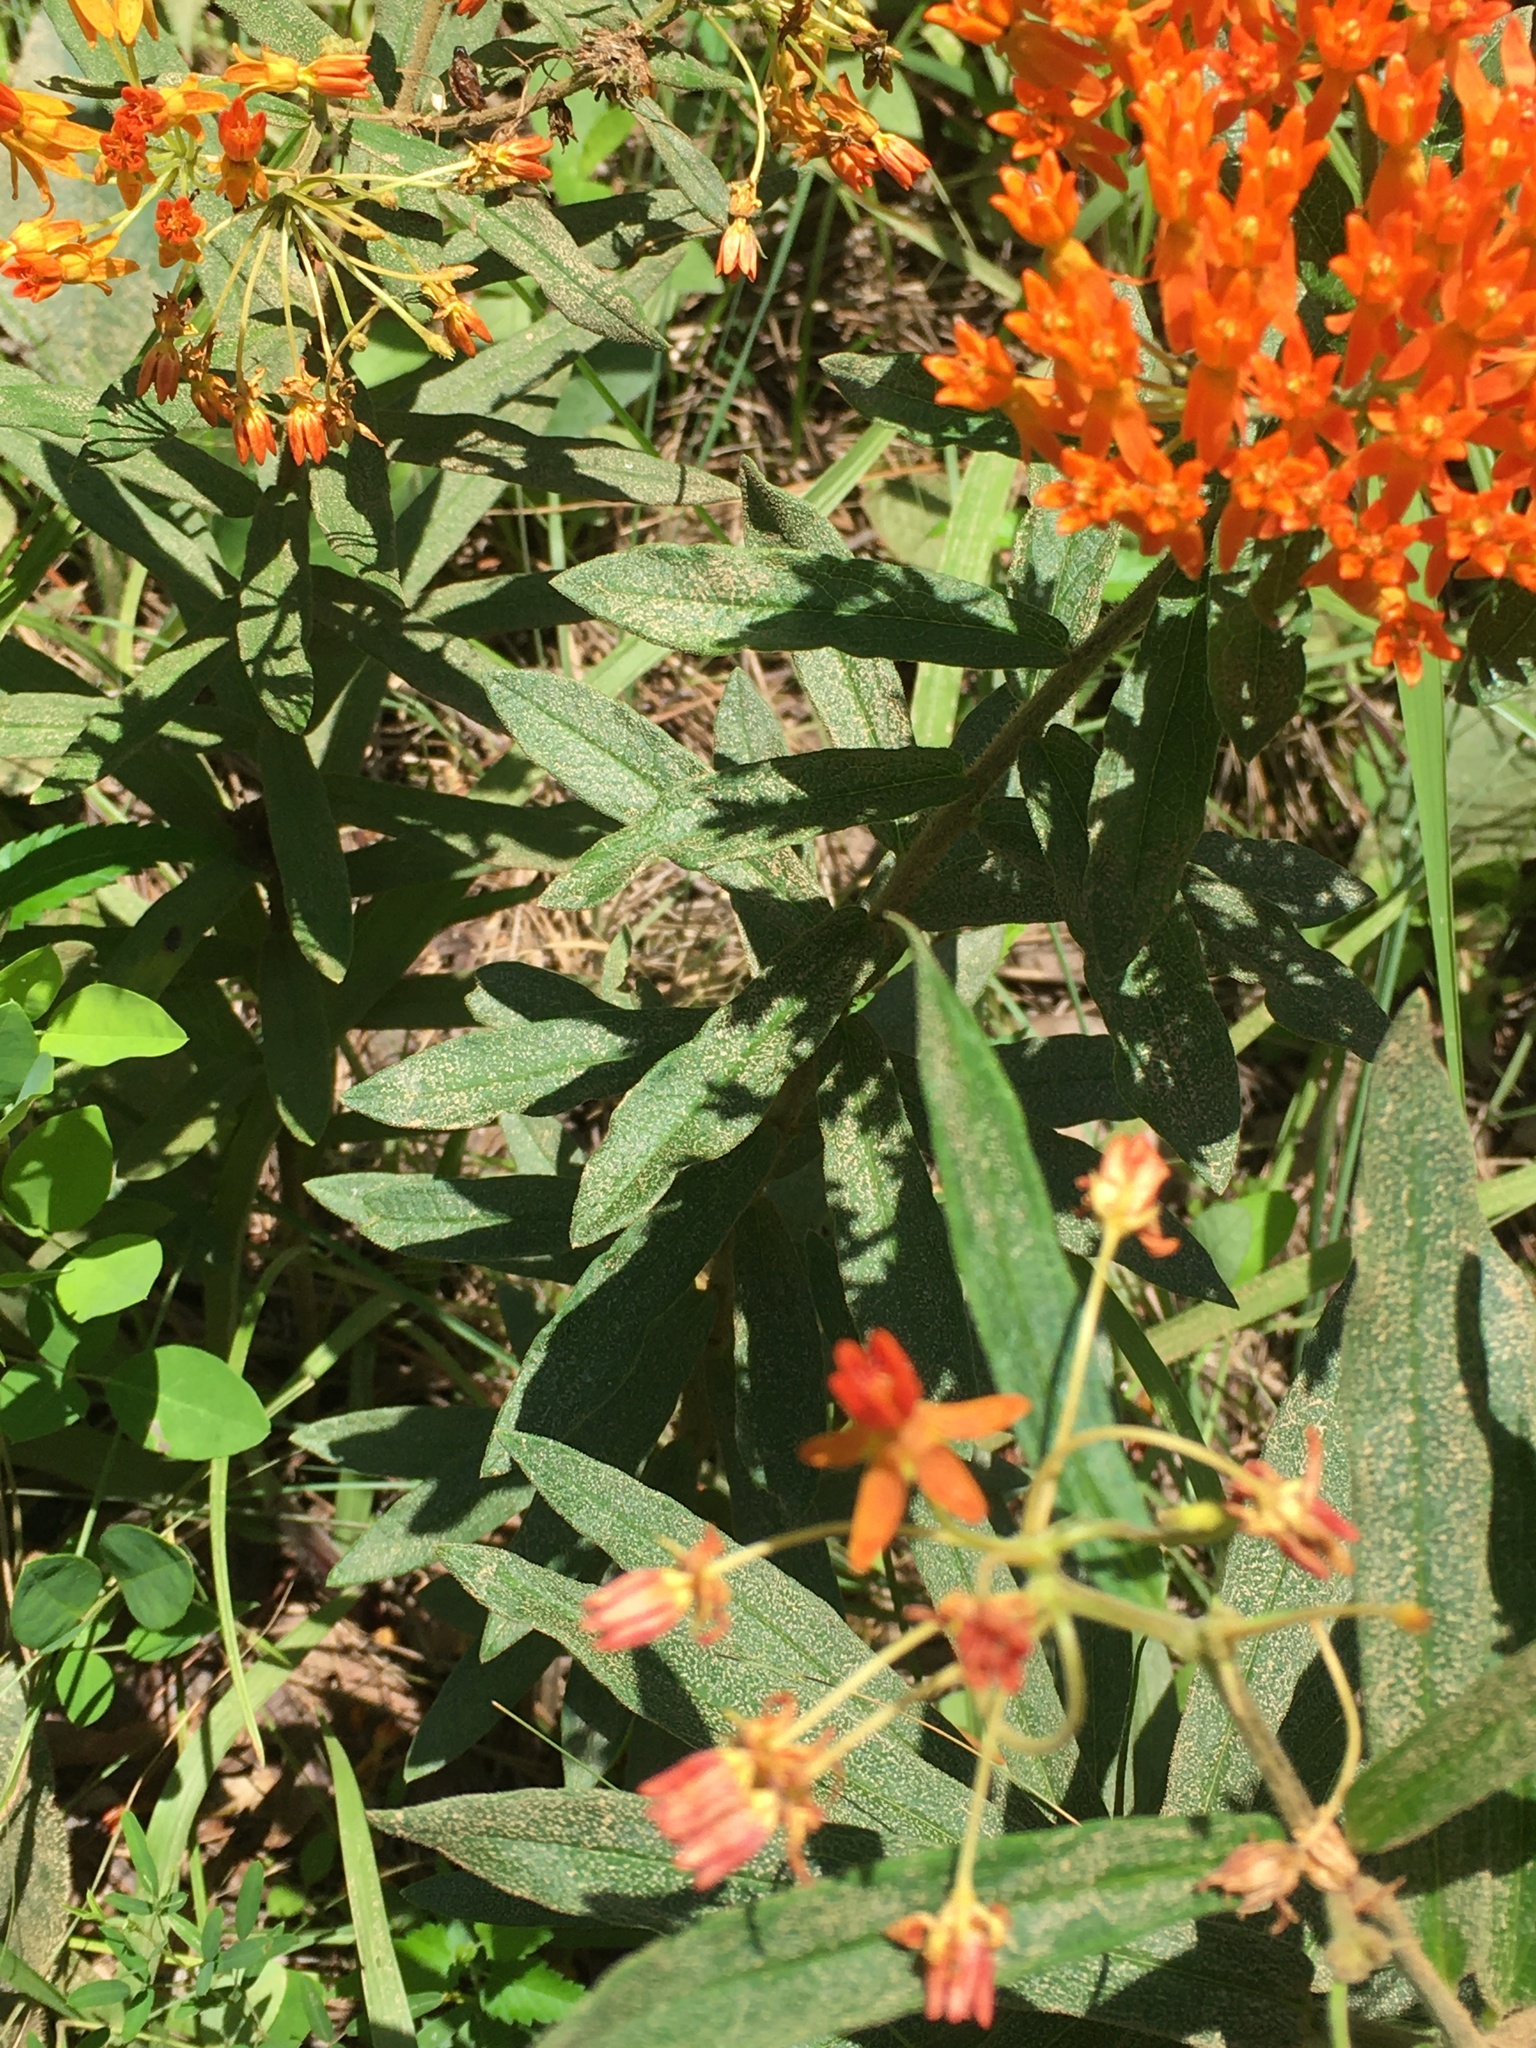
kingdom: Plantae
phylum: Tracheophyta
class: Magnoliopsida
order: Gentianales
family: Apocynaceae
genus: Asclepias
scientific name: Asclepias tuberosa
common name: Butterfly milkweed
